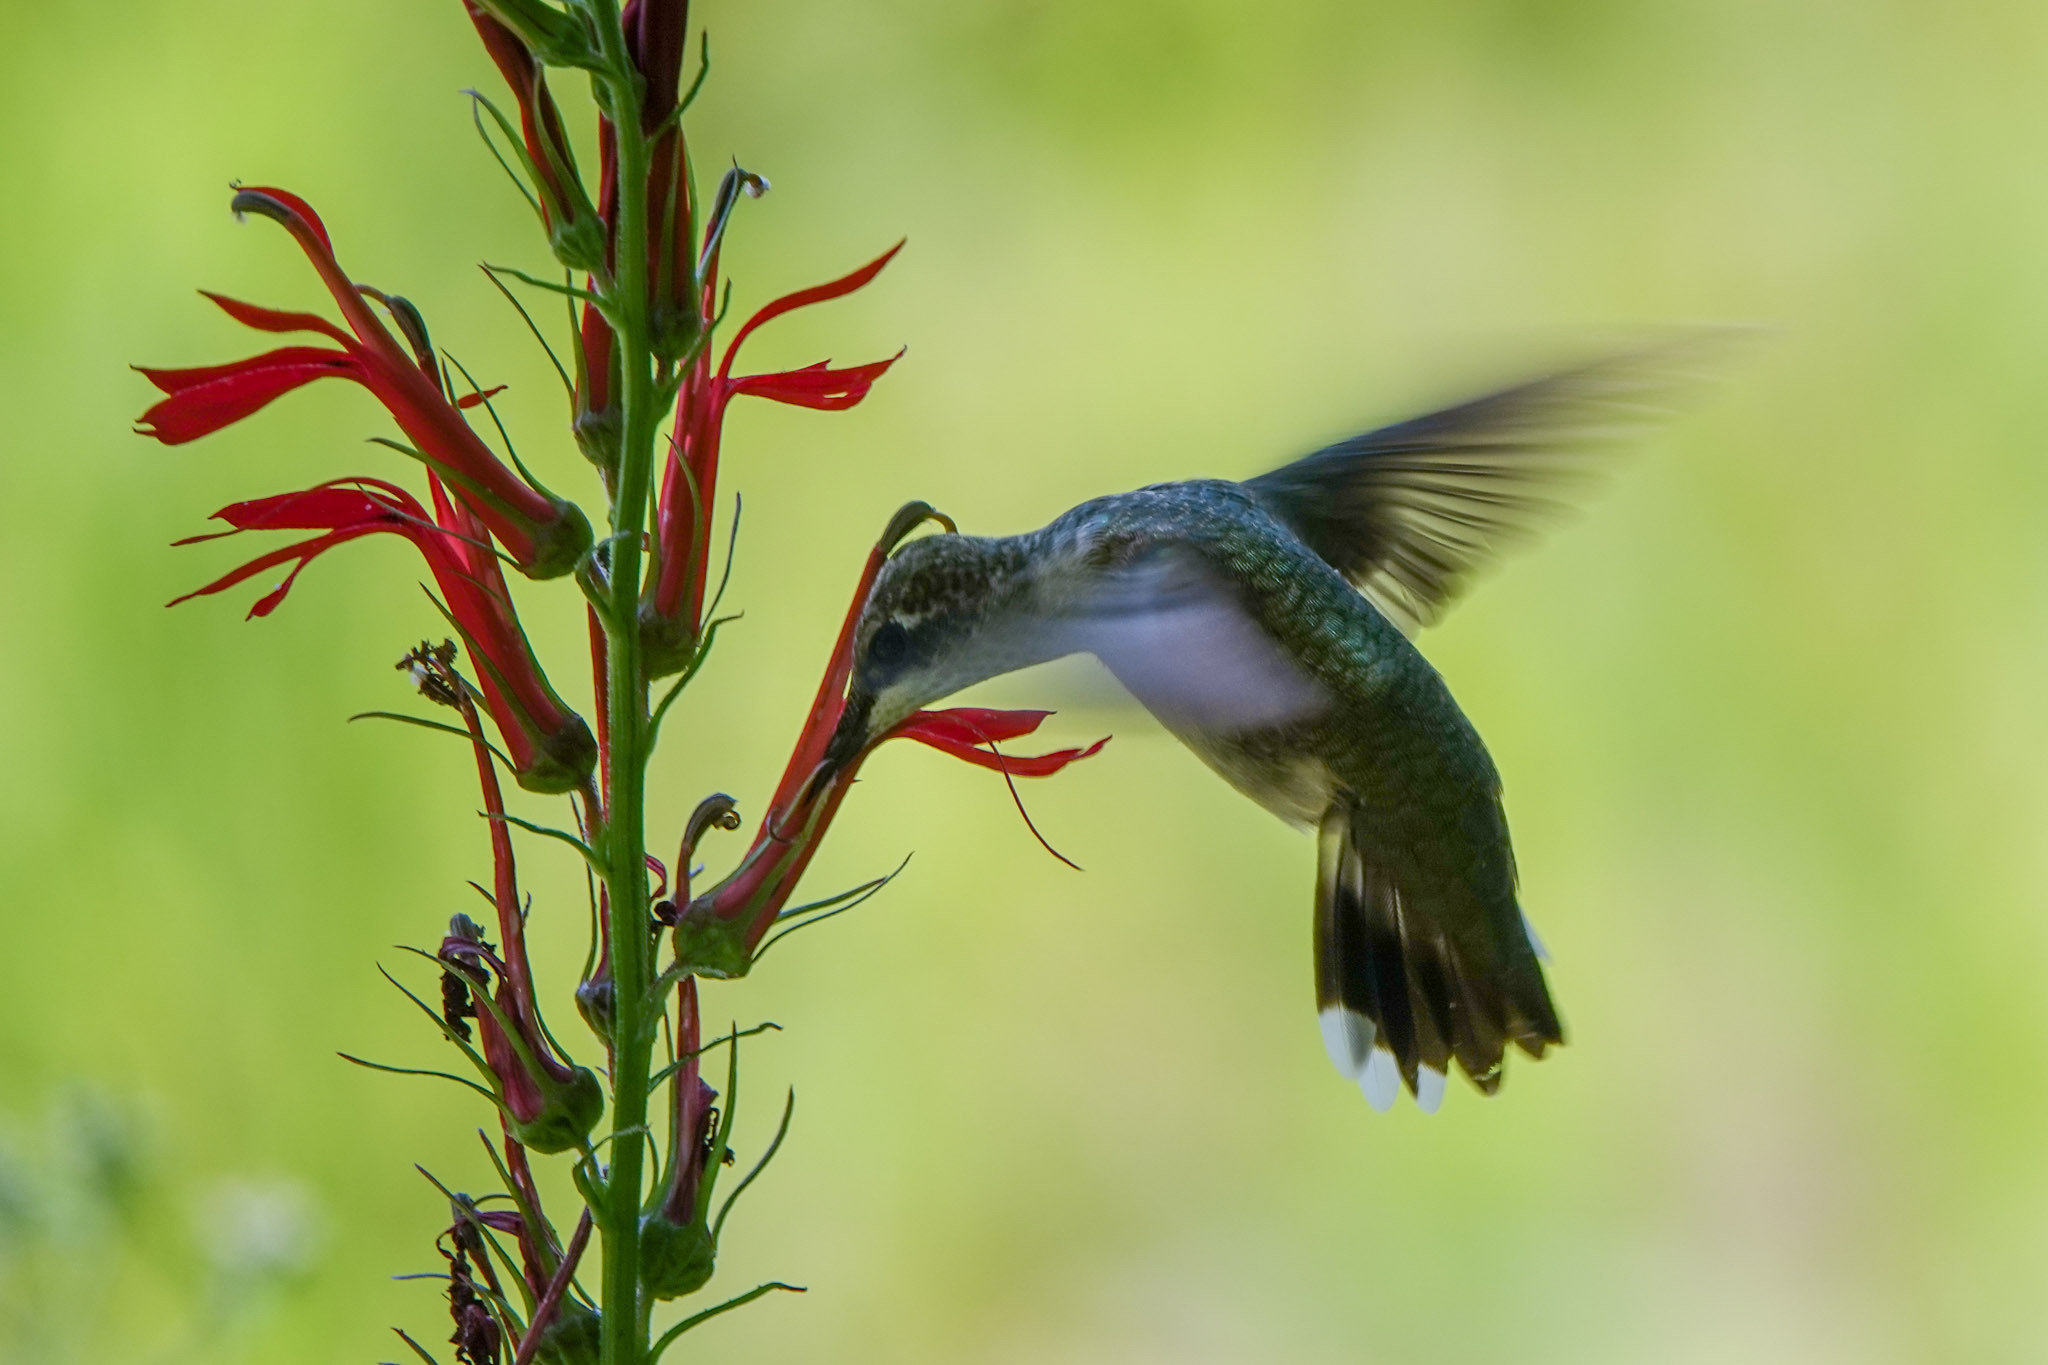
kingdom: Animalia
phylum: Chordata
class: Aves
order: Apodiformes
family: Trochilidae
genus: Archilochus
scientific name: Archilochus colubris
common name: Ruby-throated hummingbird
